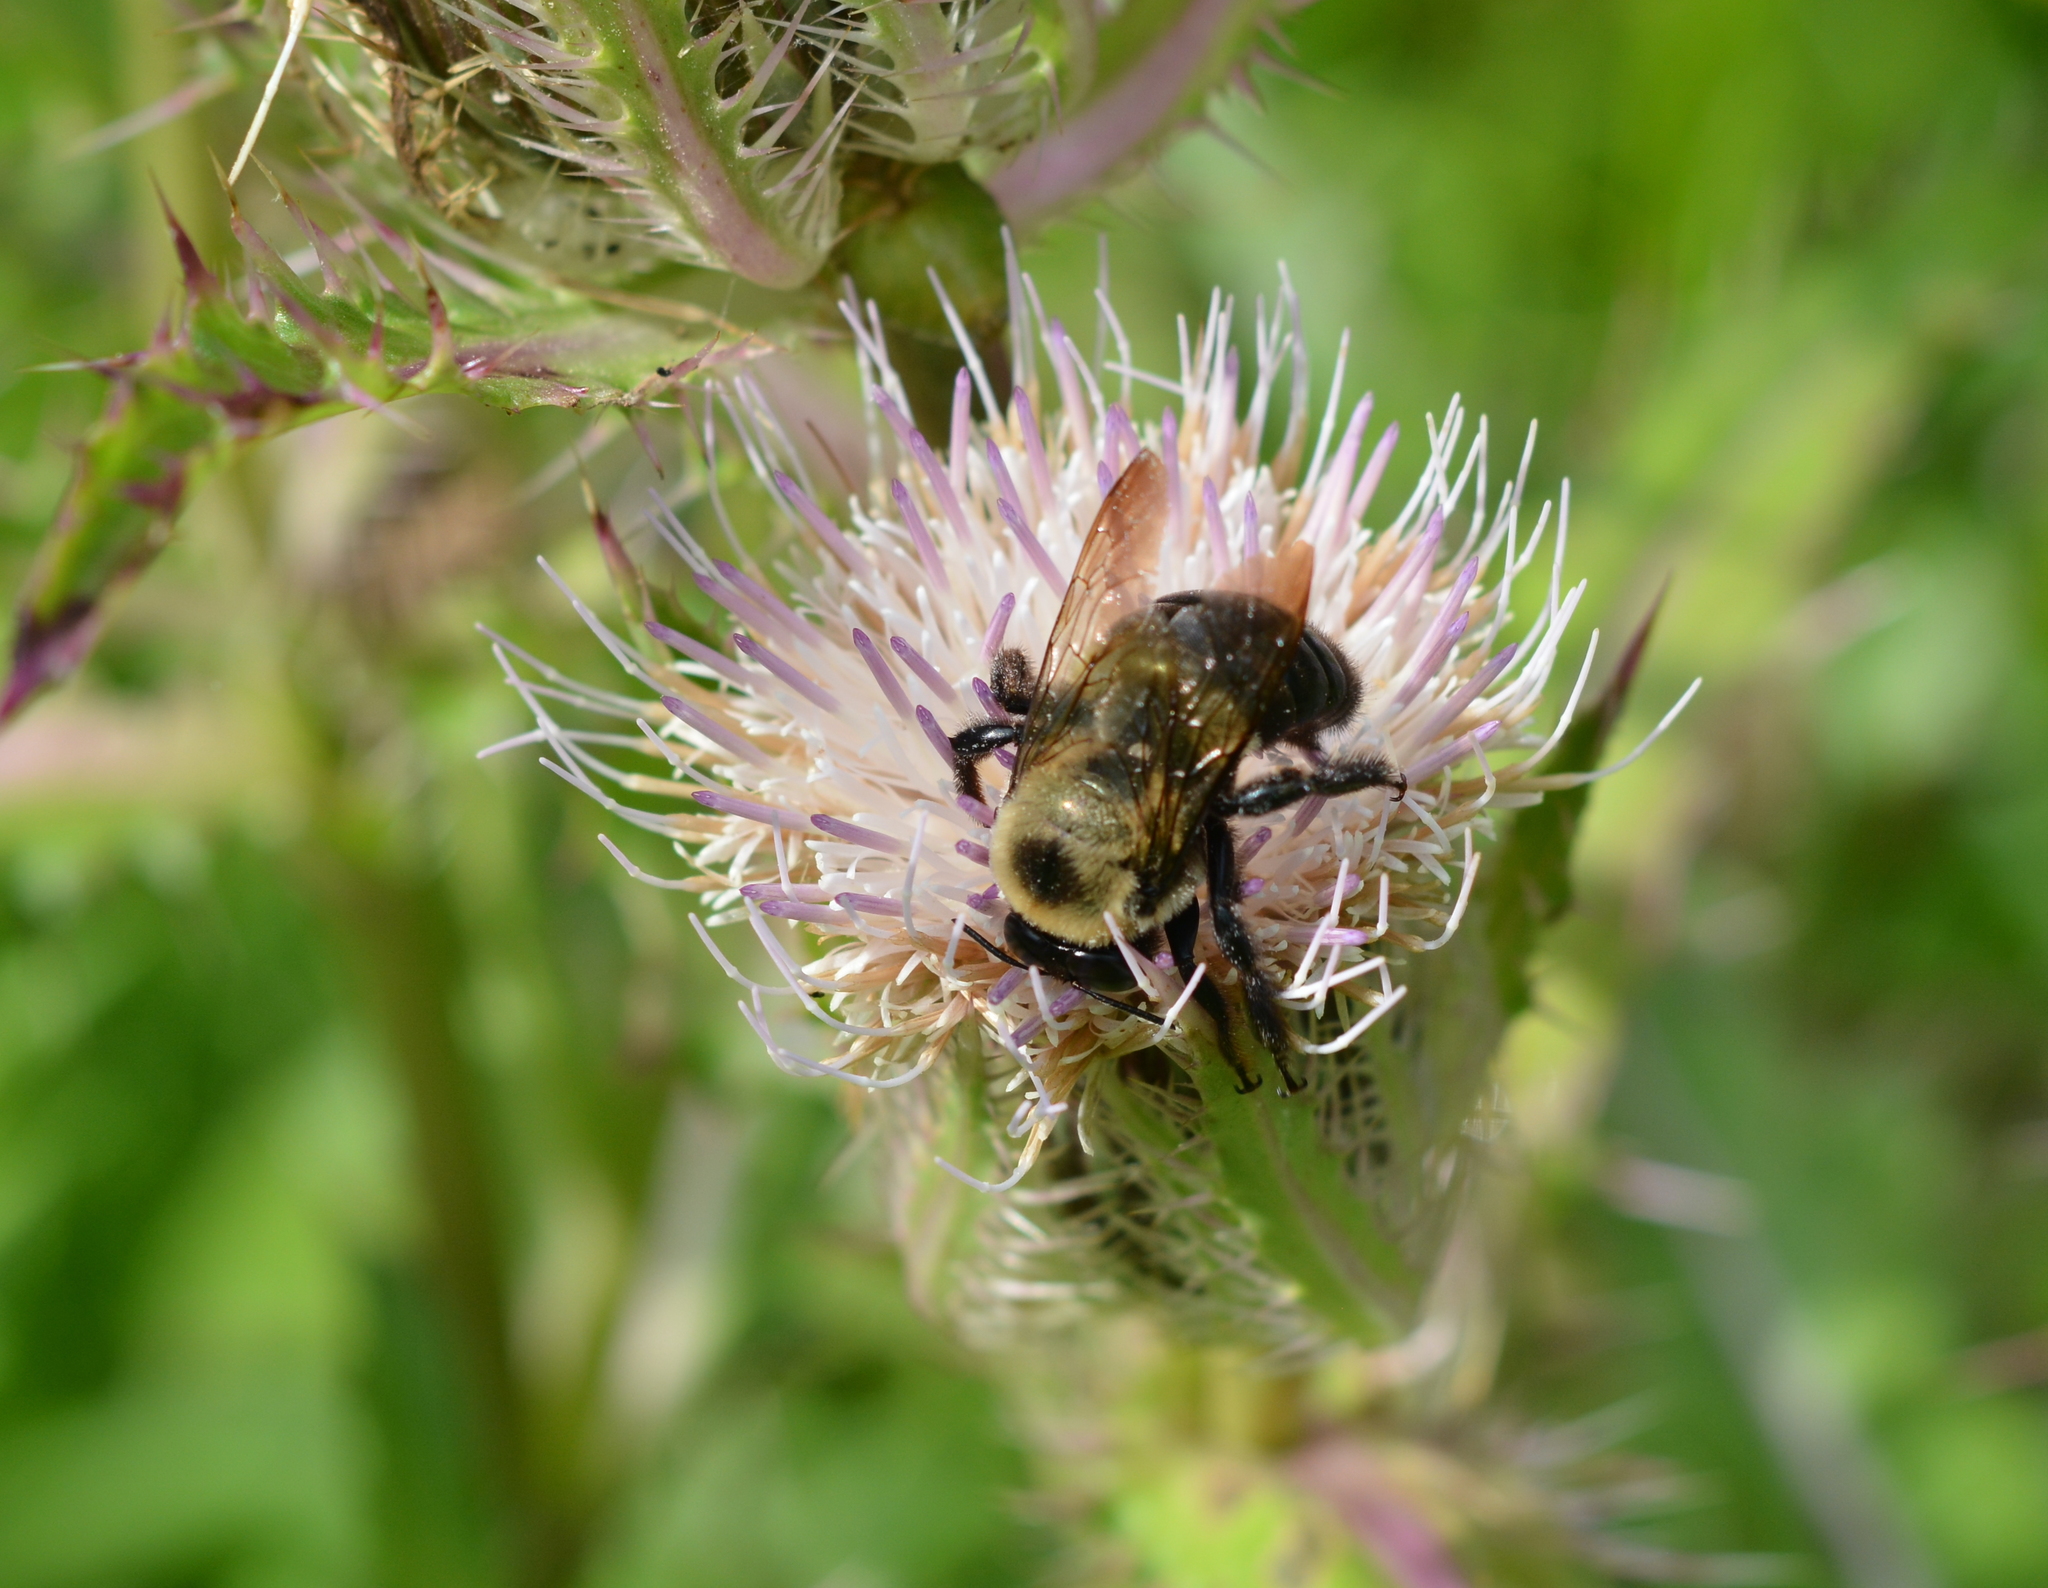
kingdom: Animalia
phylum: Arthropoda
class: Insecta
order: Hymenoptera
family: Apidae
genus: Xylocopa
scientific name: Xylocopa virginica
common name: Carpenter bee
